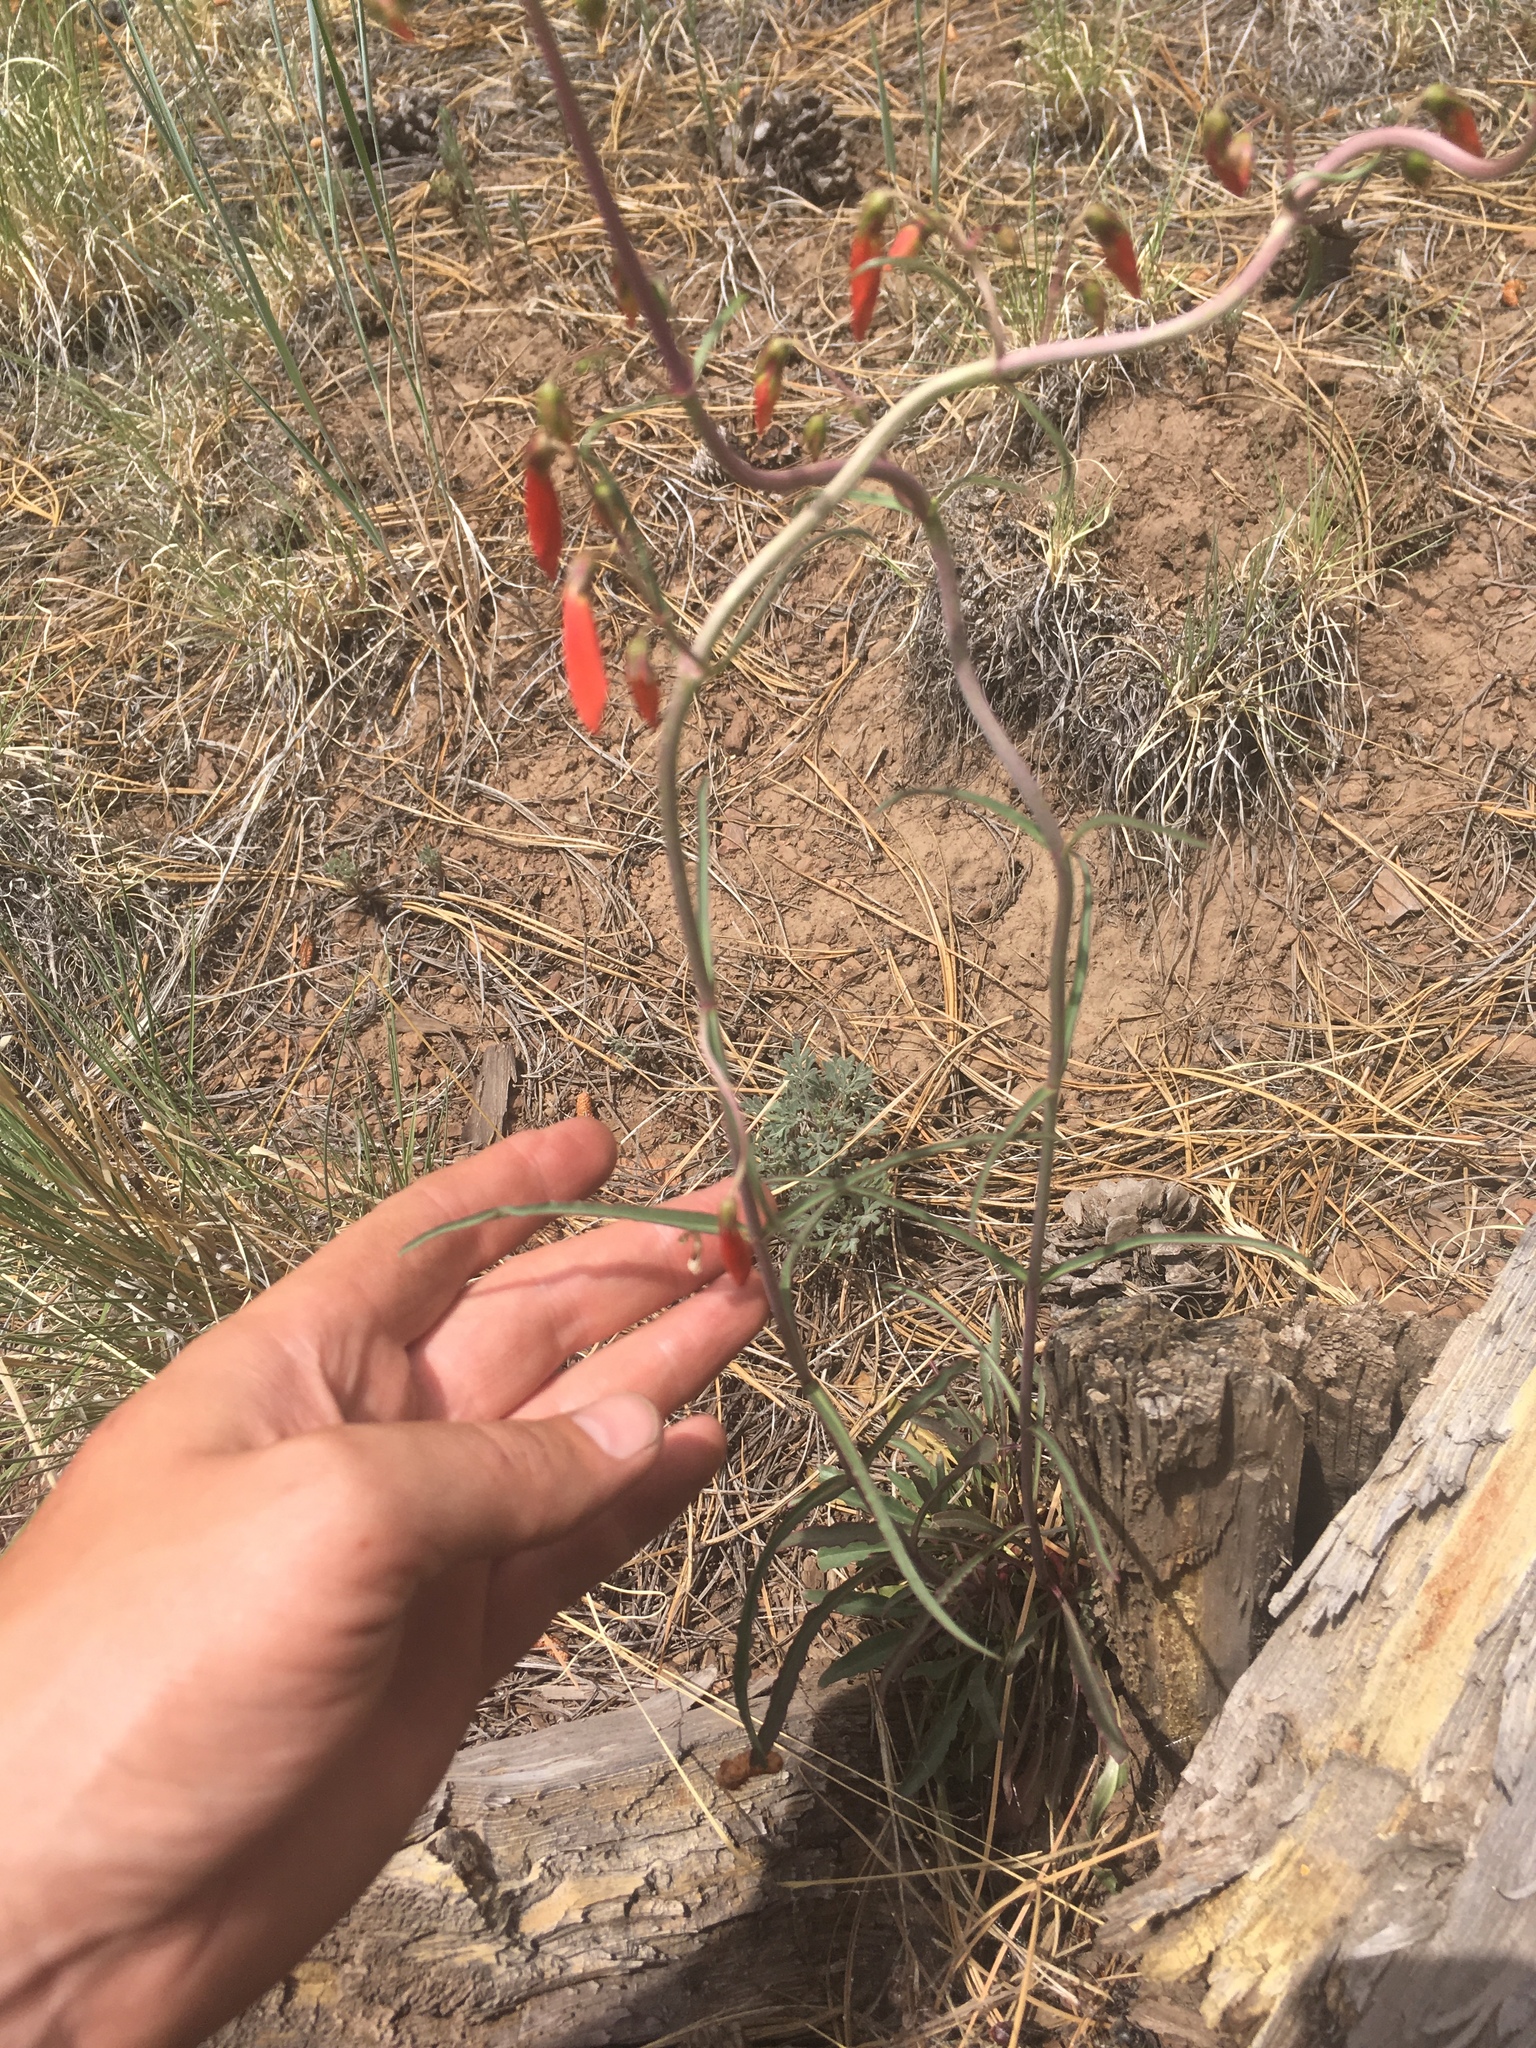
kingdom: Plantae
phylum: Tracheophyta
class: Magnoliopsida
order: Lamiales
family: Plantaginaceae
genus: Penstemon
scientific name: Penstemon barbatus
